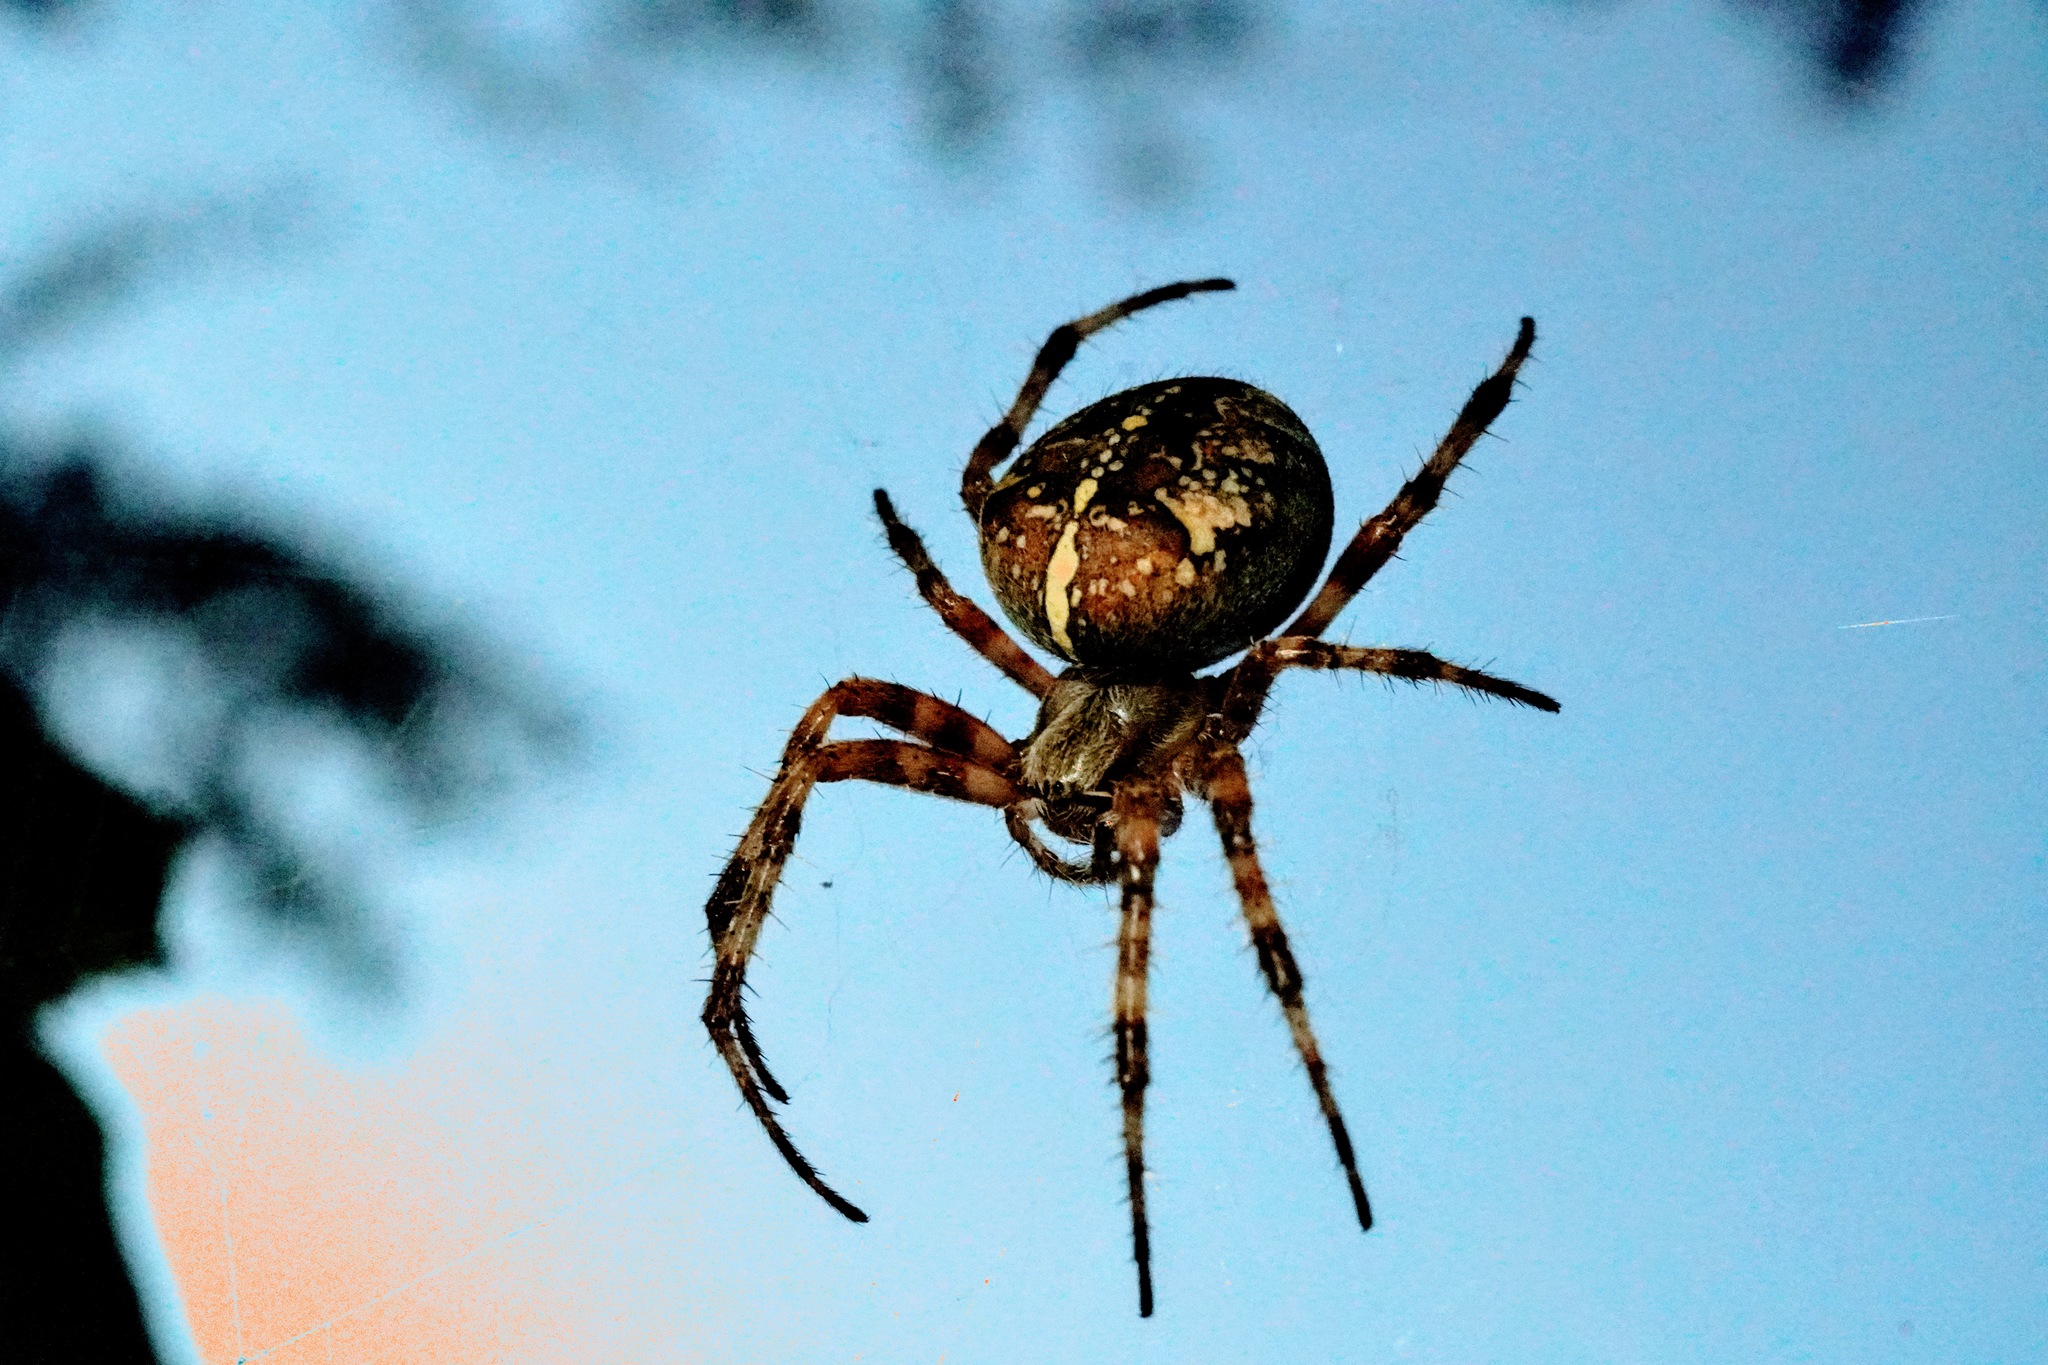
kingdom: Animalia
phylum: Arthropoda
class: Arachnida
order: Araneae
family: Araneidae
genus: Araneus
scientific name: Araneus diadematus
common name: Cross orbweaver
